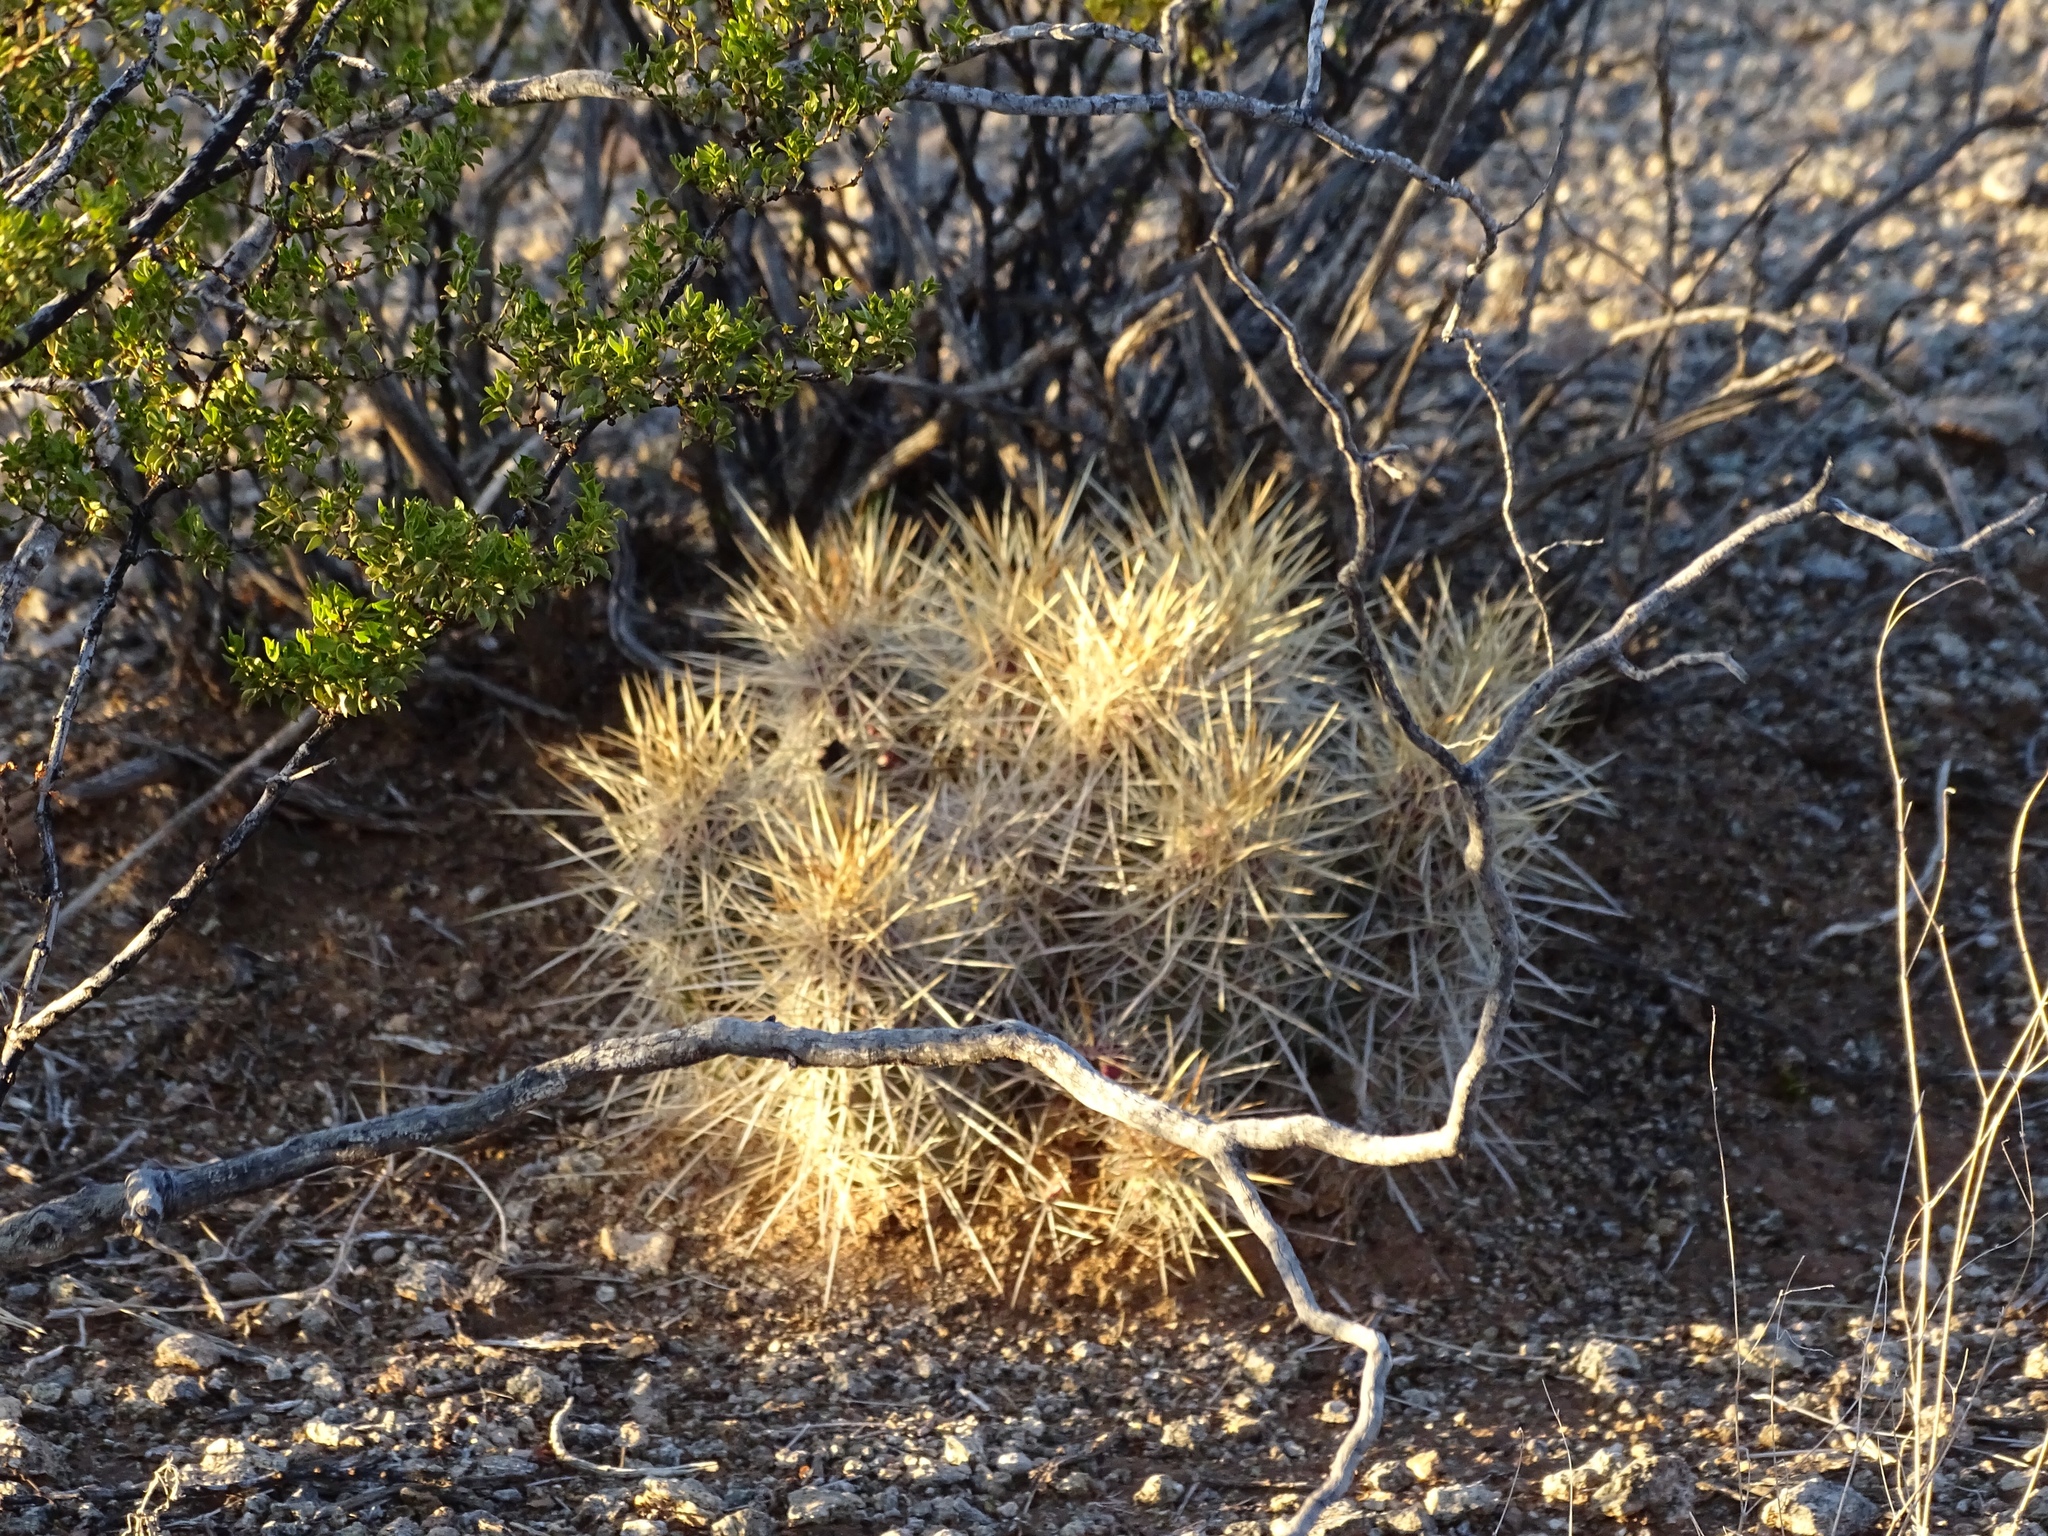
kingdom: Plantae
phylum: Tracheophyta
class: Magnoliopsida
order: Caryophyllales
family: Cactaceae
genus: Echinocereus
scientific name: Echinocereus stramineus
